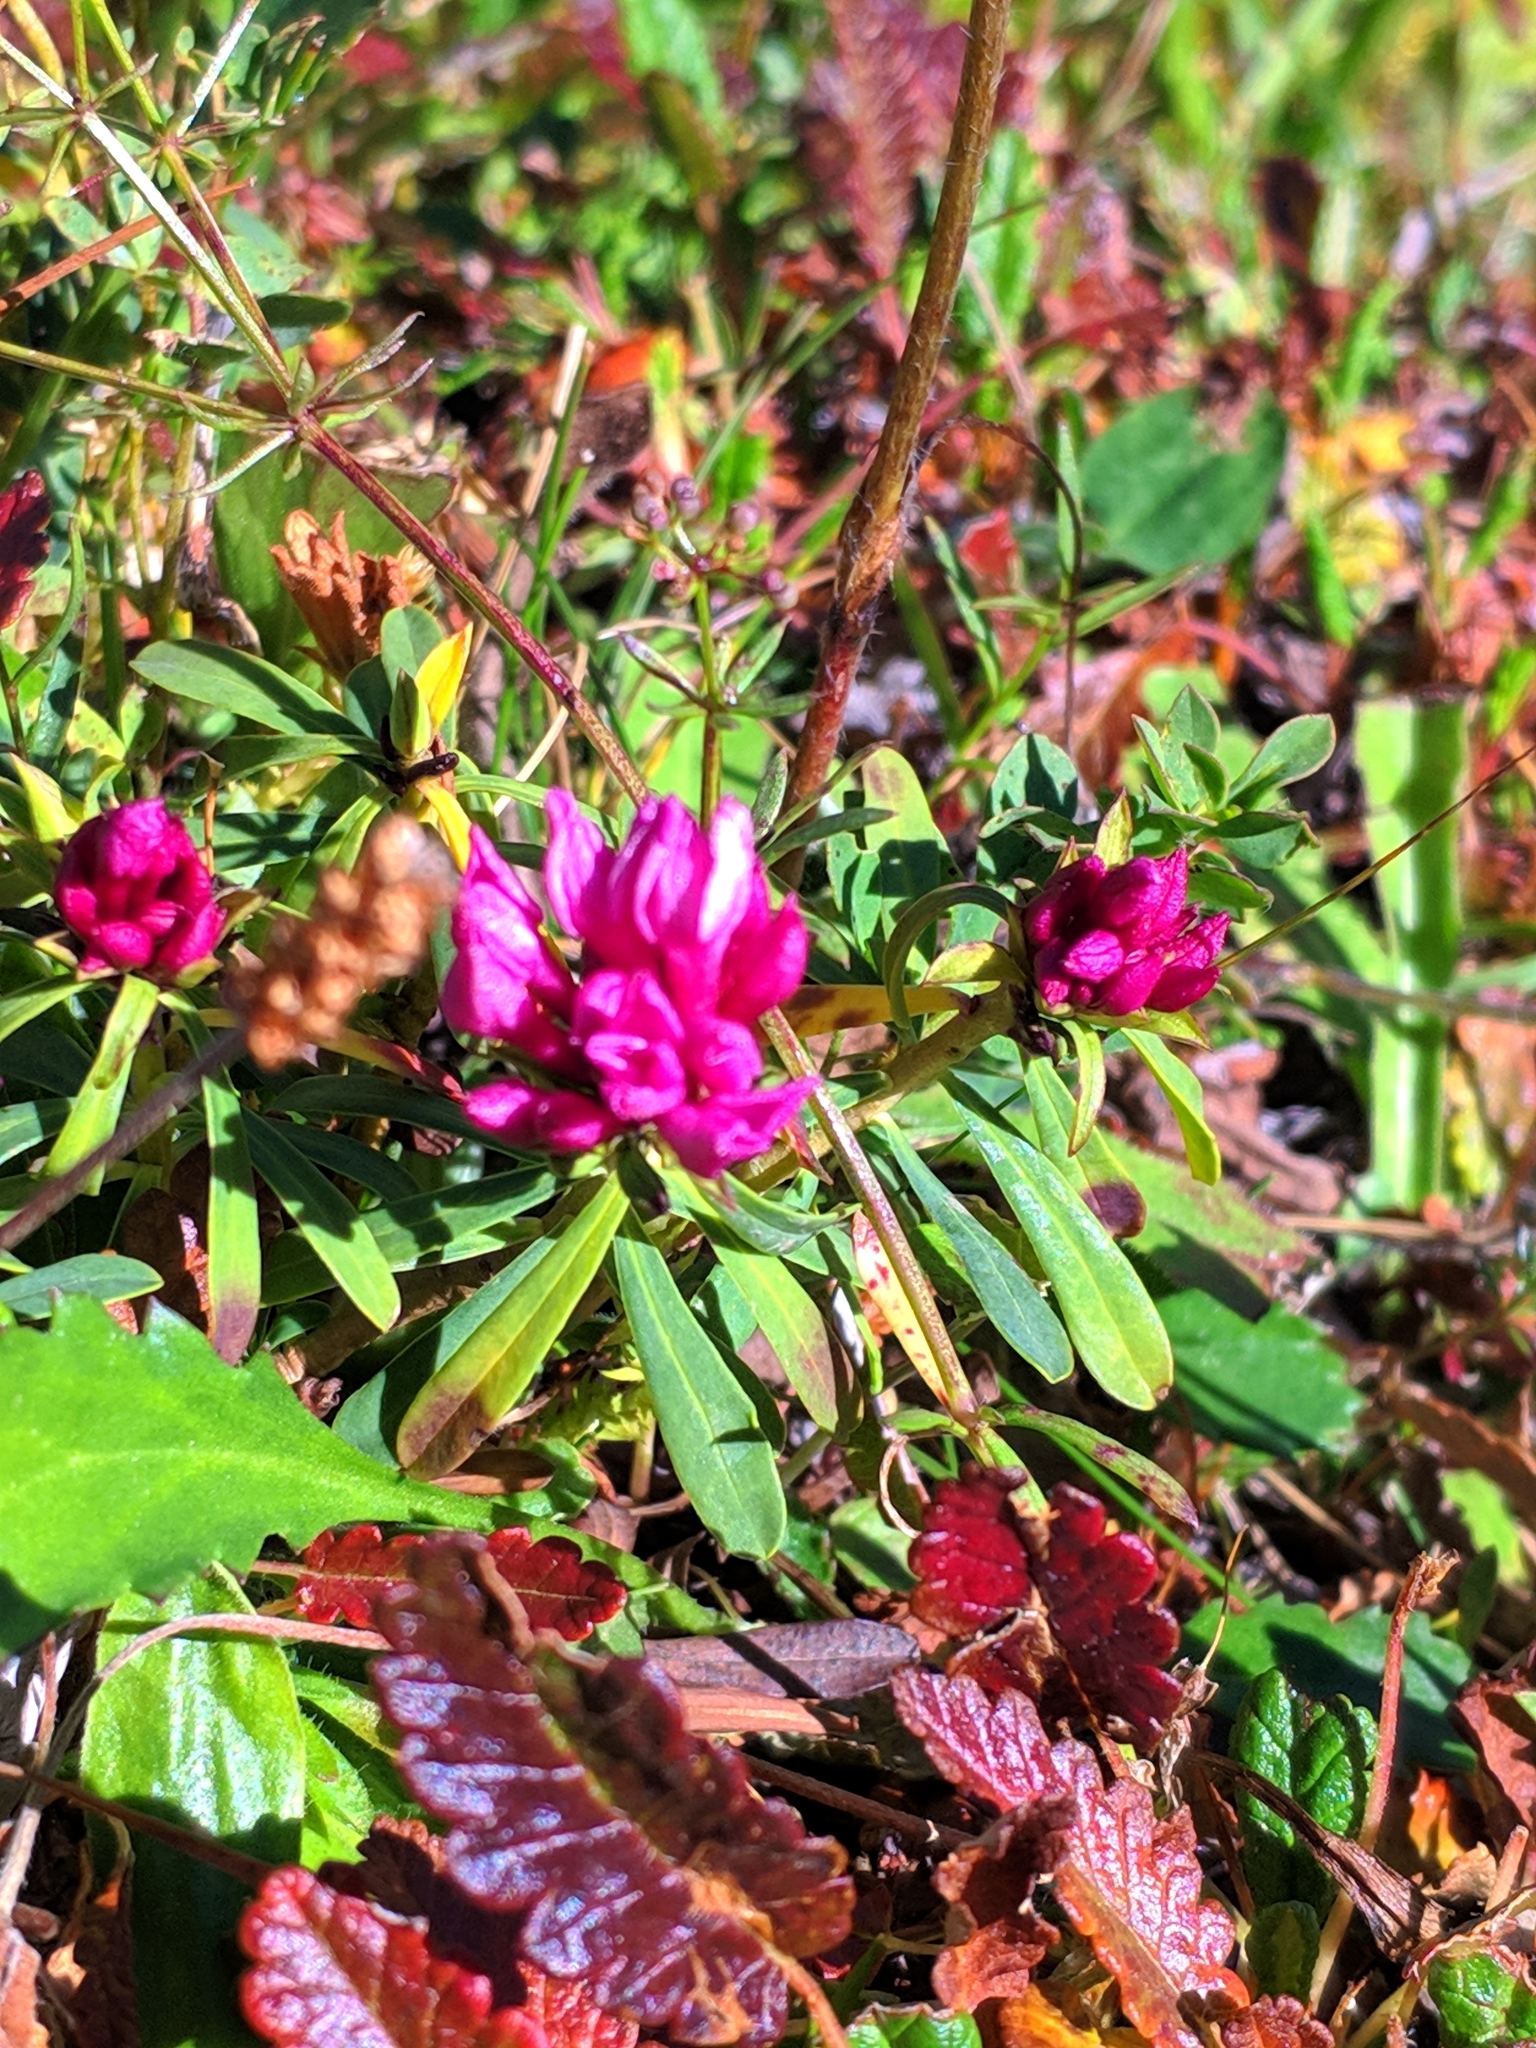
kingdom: Plantae
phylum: Tracheophyta
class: Magnoliopsida
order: Malvales
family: Thymelaeaceae
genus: Daphne
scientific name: Daphne striata
